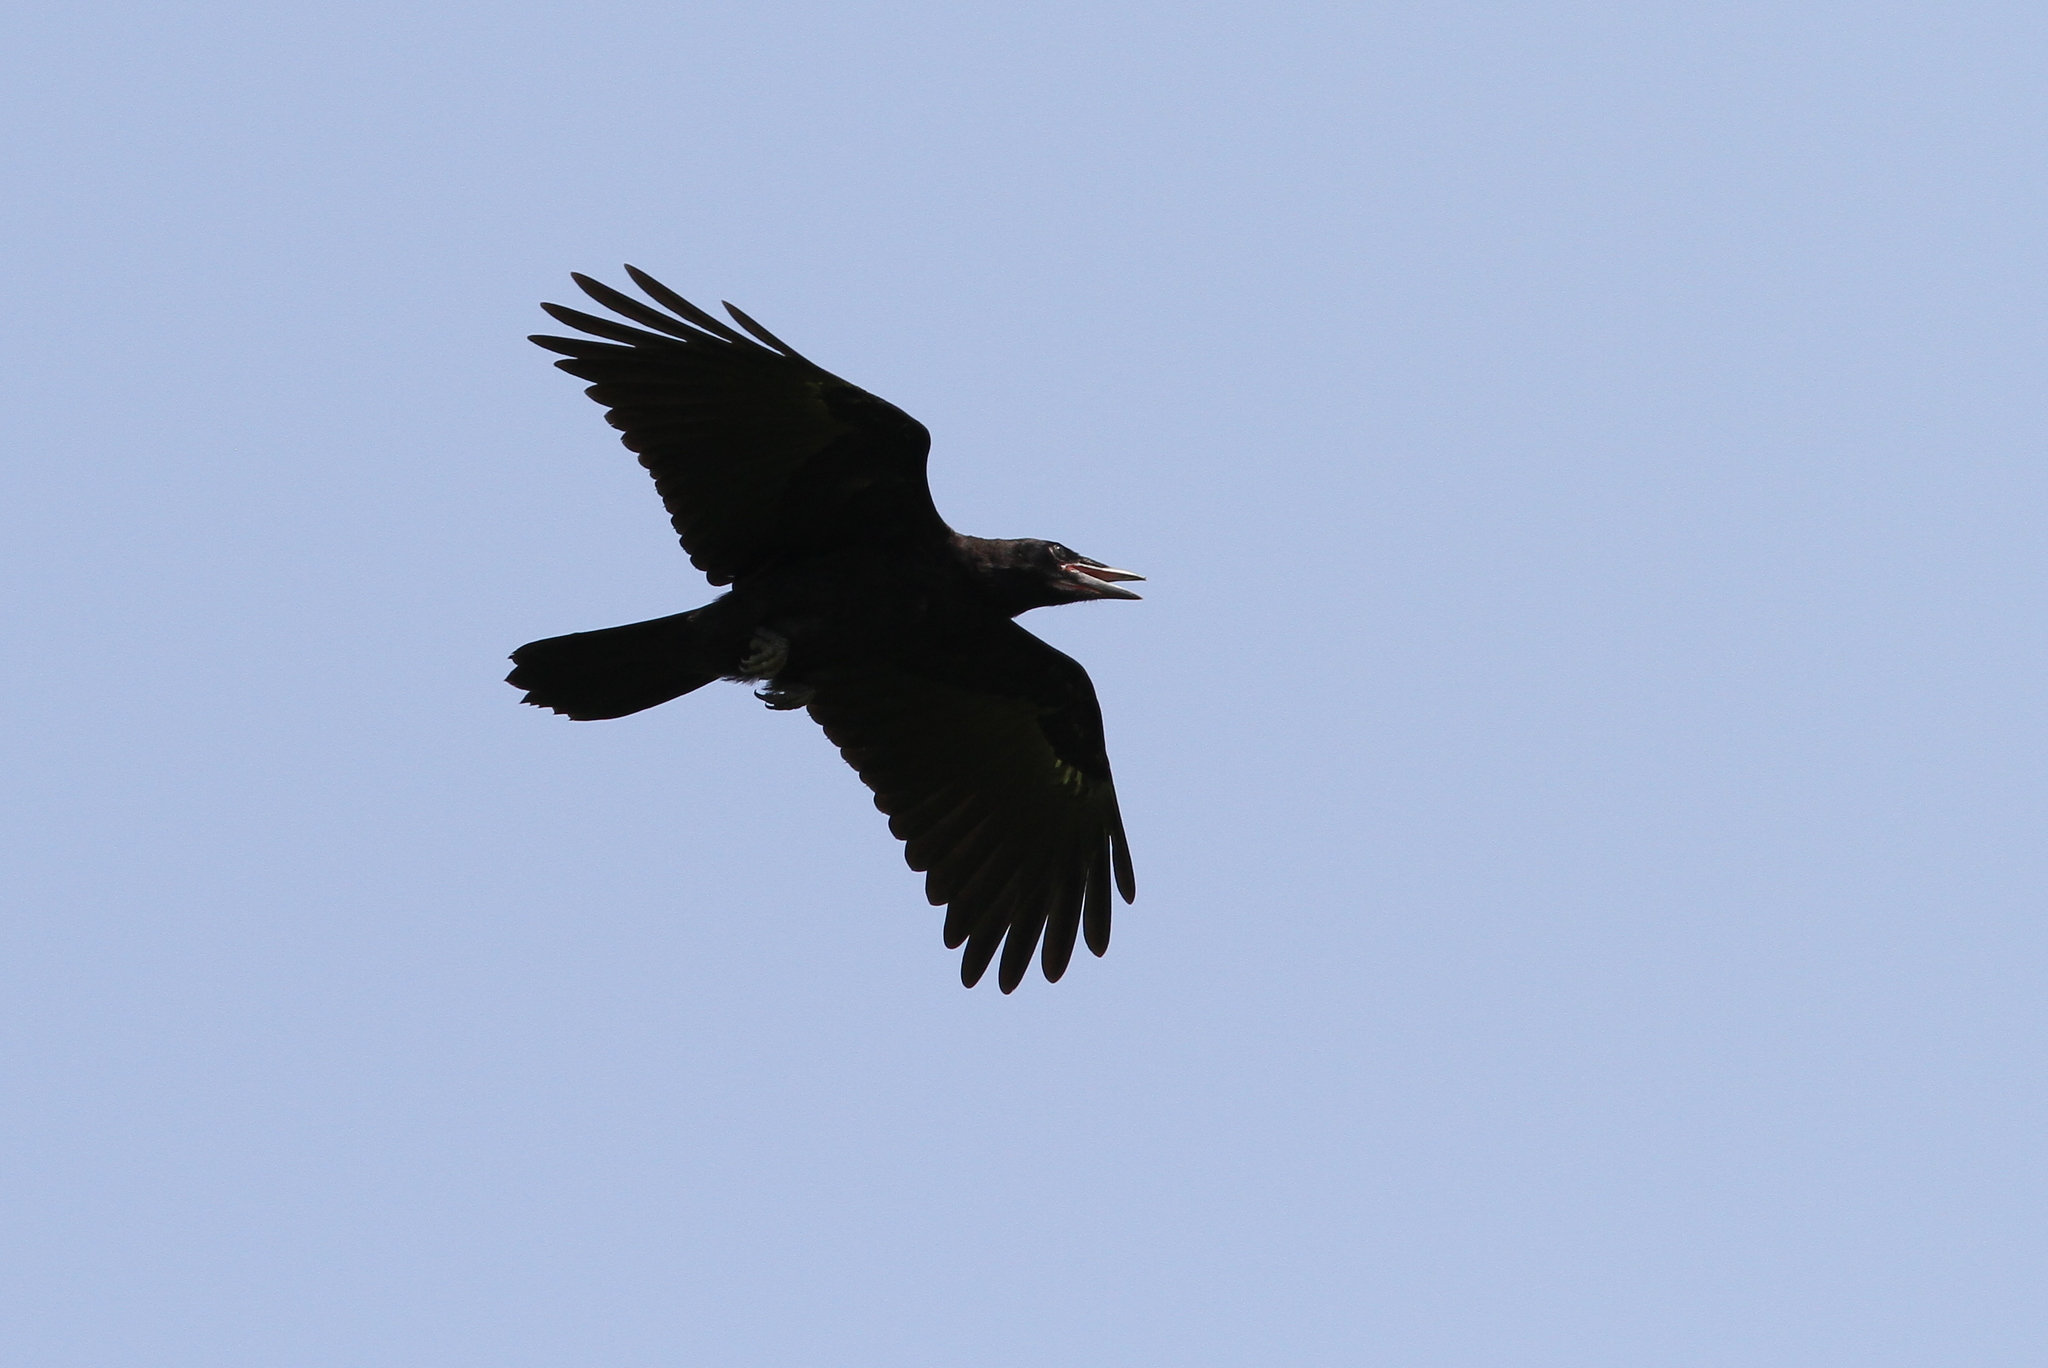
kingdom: Animalia
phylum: Chordata
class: Aves
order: Passeriformes
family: Corvidae
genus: Corvus
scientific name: Corvus frugilegus
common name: Rook
